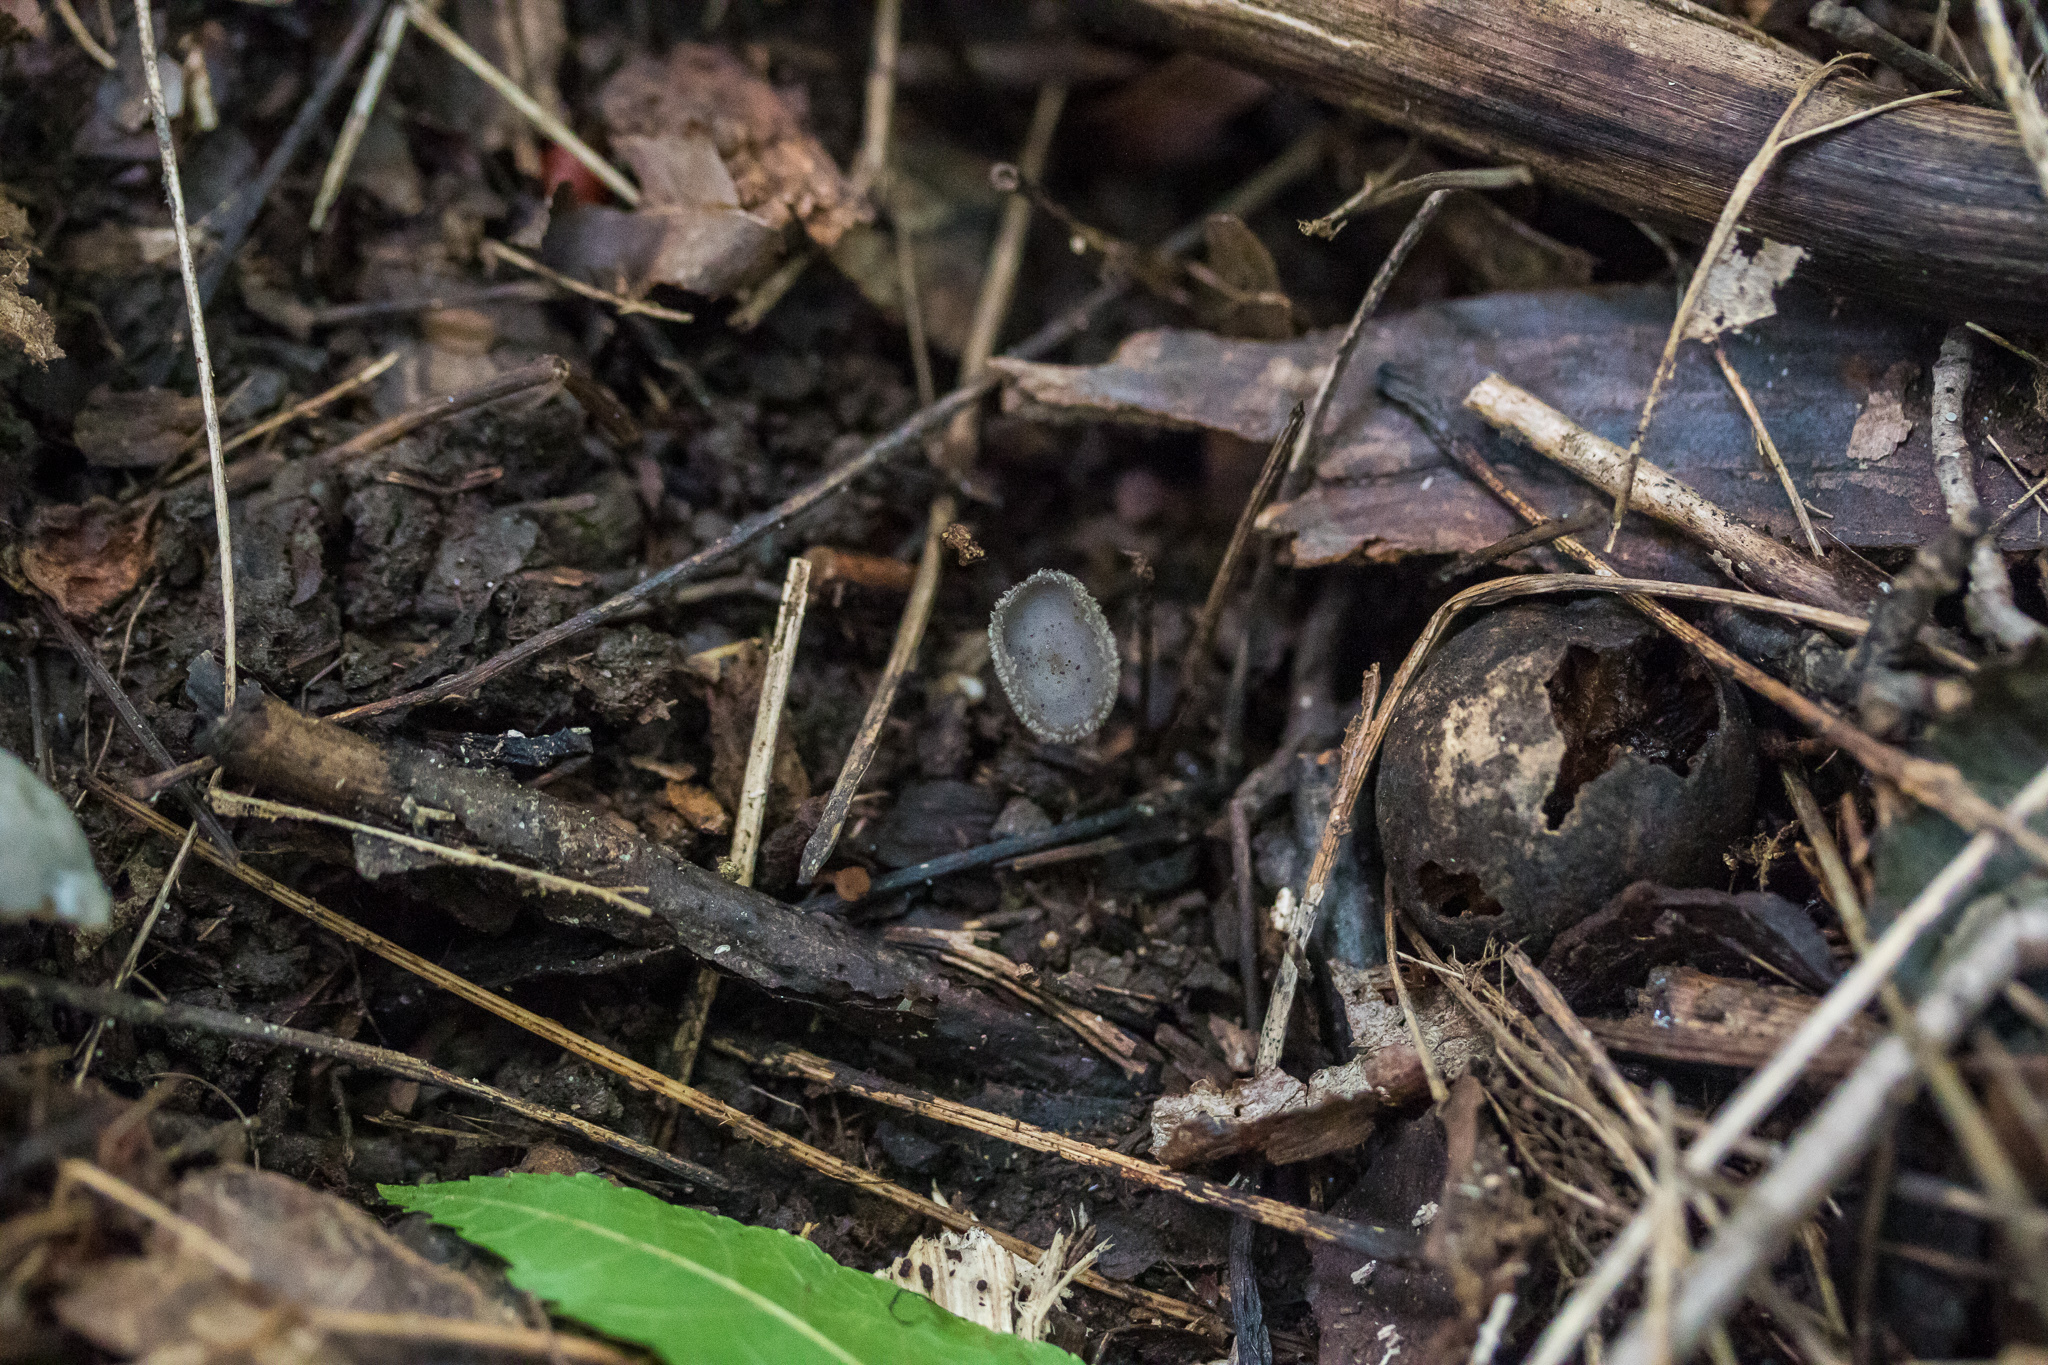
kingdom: Fungi
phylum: Ascomycota
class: Pezizomycetes
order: Pezizales
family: Helvellaceae
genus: Helvella
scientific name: Helvella macropus
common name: Felt saddle
